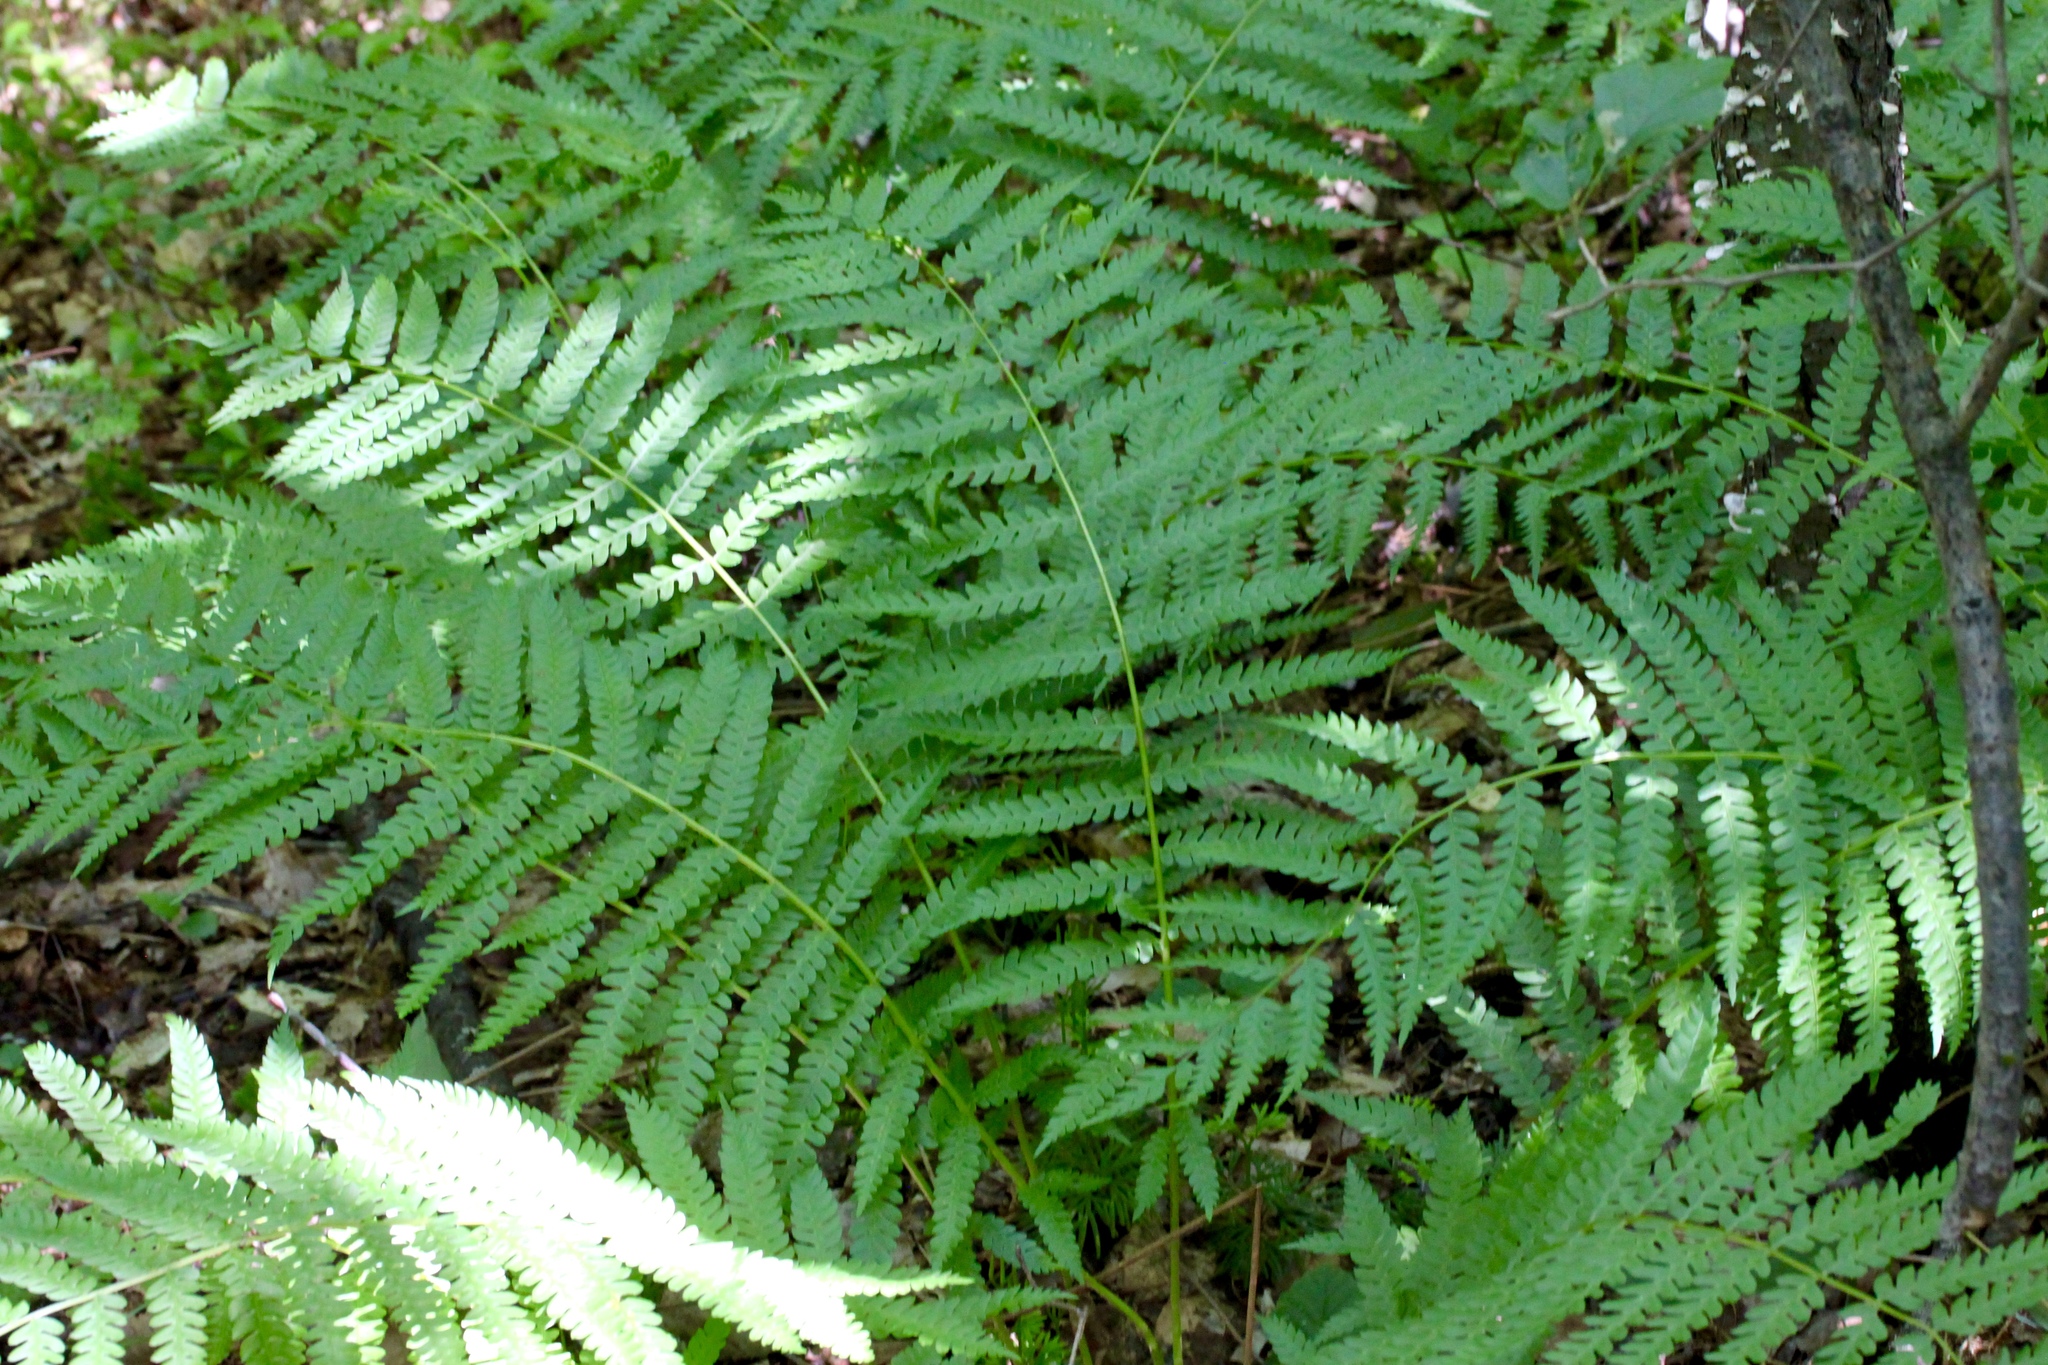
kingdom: Plantae
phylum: Tracheophyta
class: Polypodiopsida
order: Osmundales
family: Osmundaceae
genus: Osmundastrum
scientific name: Osmundastrum cinnamomeum
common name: Cinnamon fern
